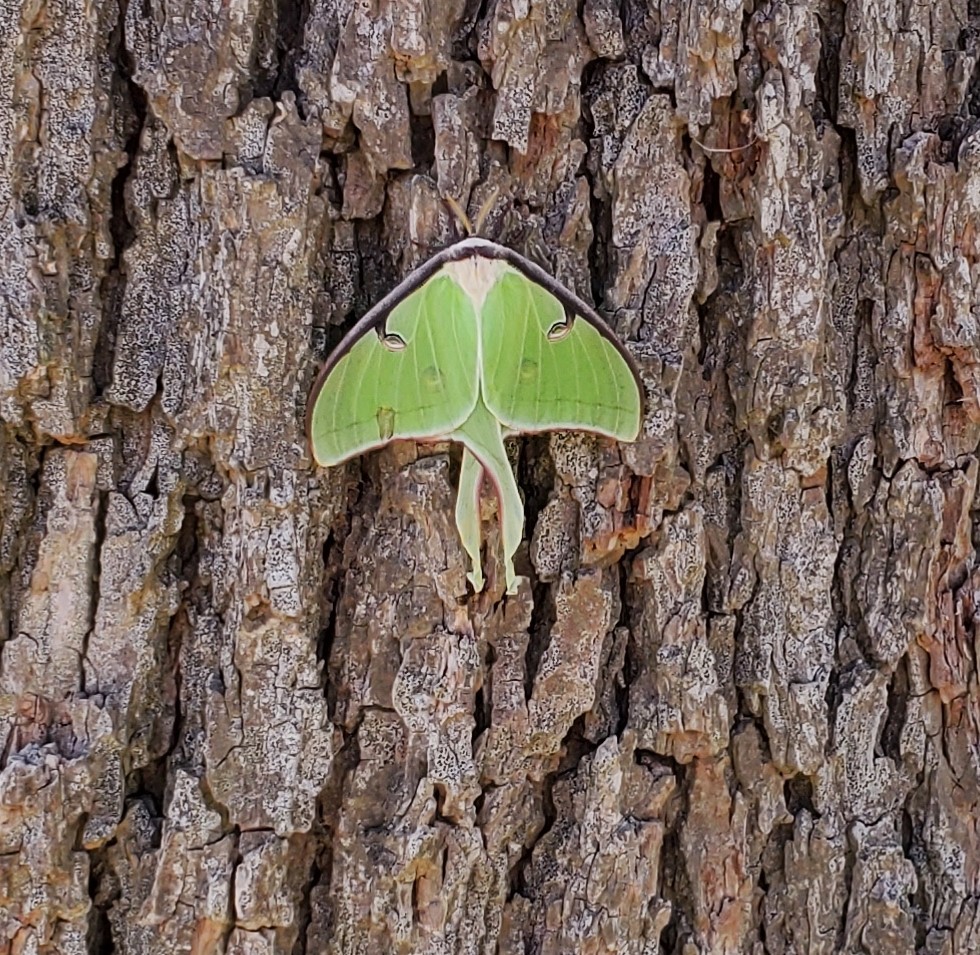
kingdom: Animalia
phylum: Arthropoda
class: Insecta
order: Lepidoptera
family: Saturniidae
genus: Actias
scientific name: Actias luna
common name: Luna moth
